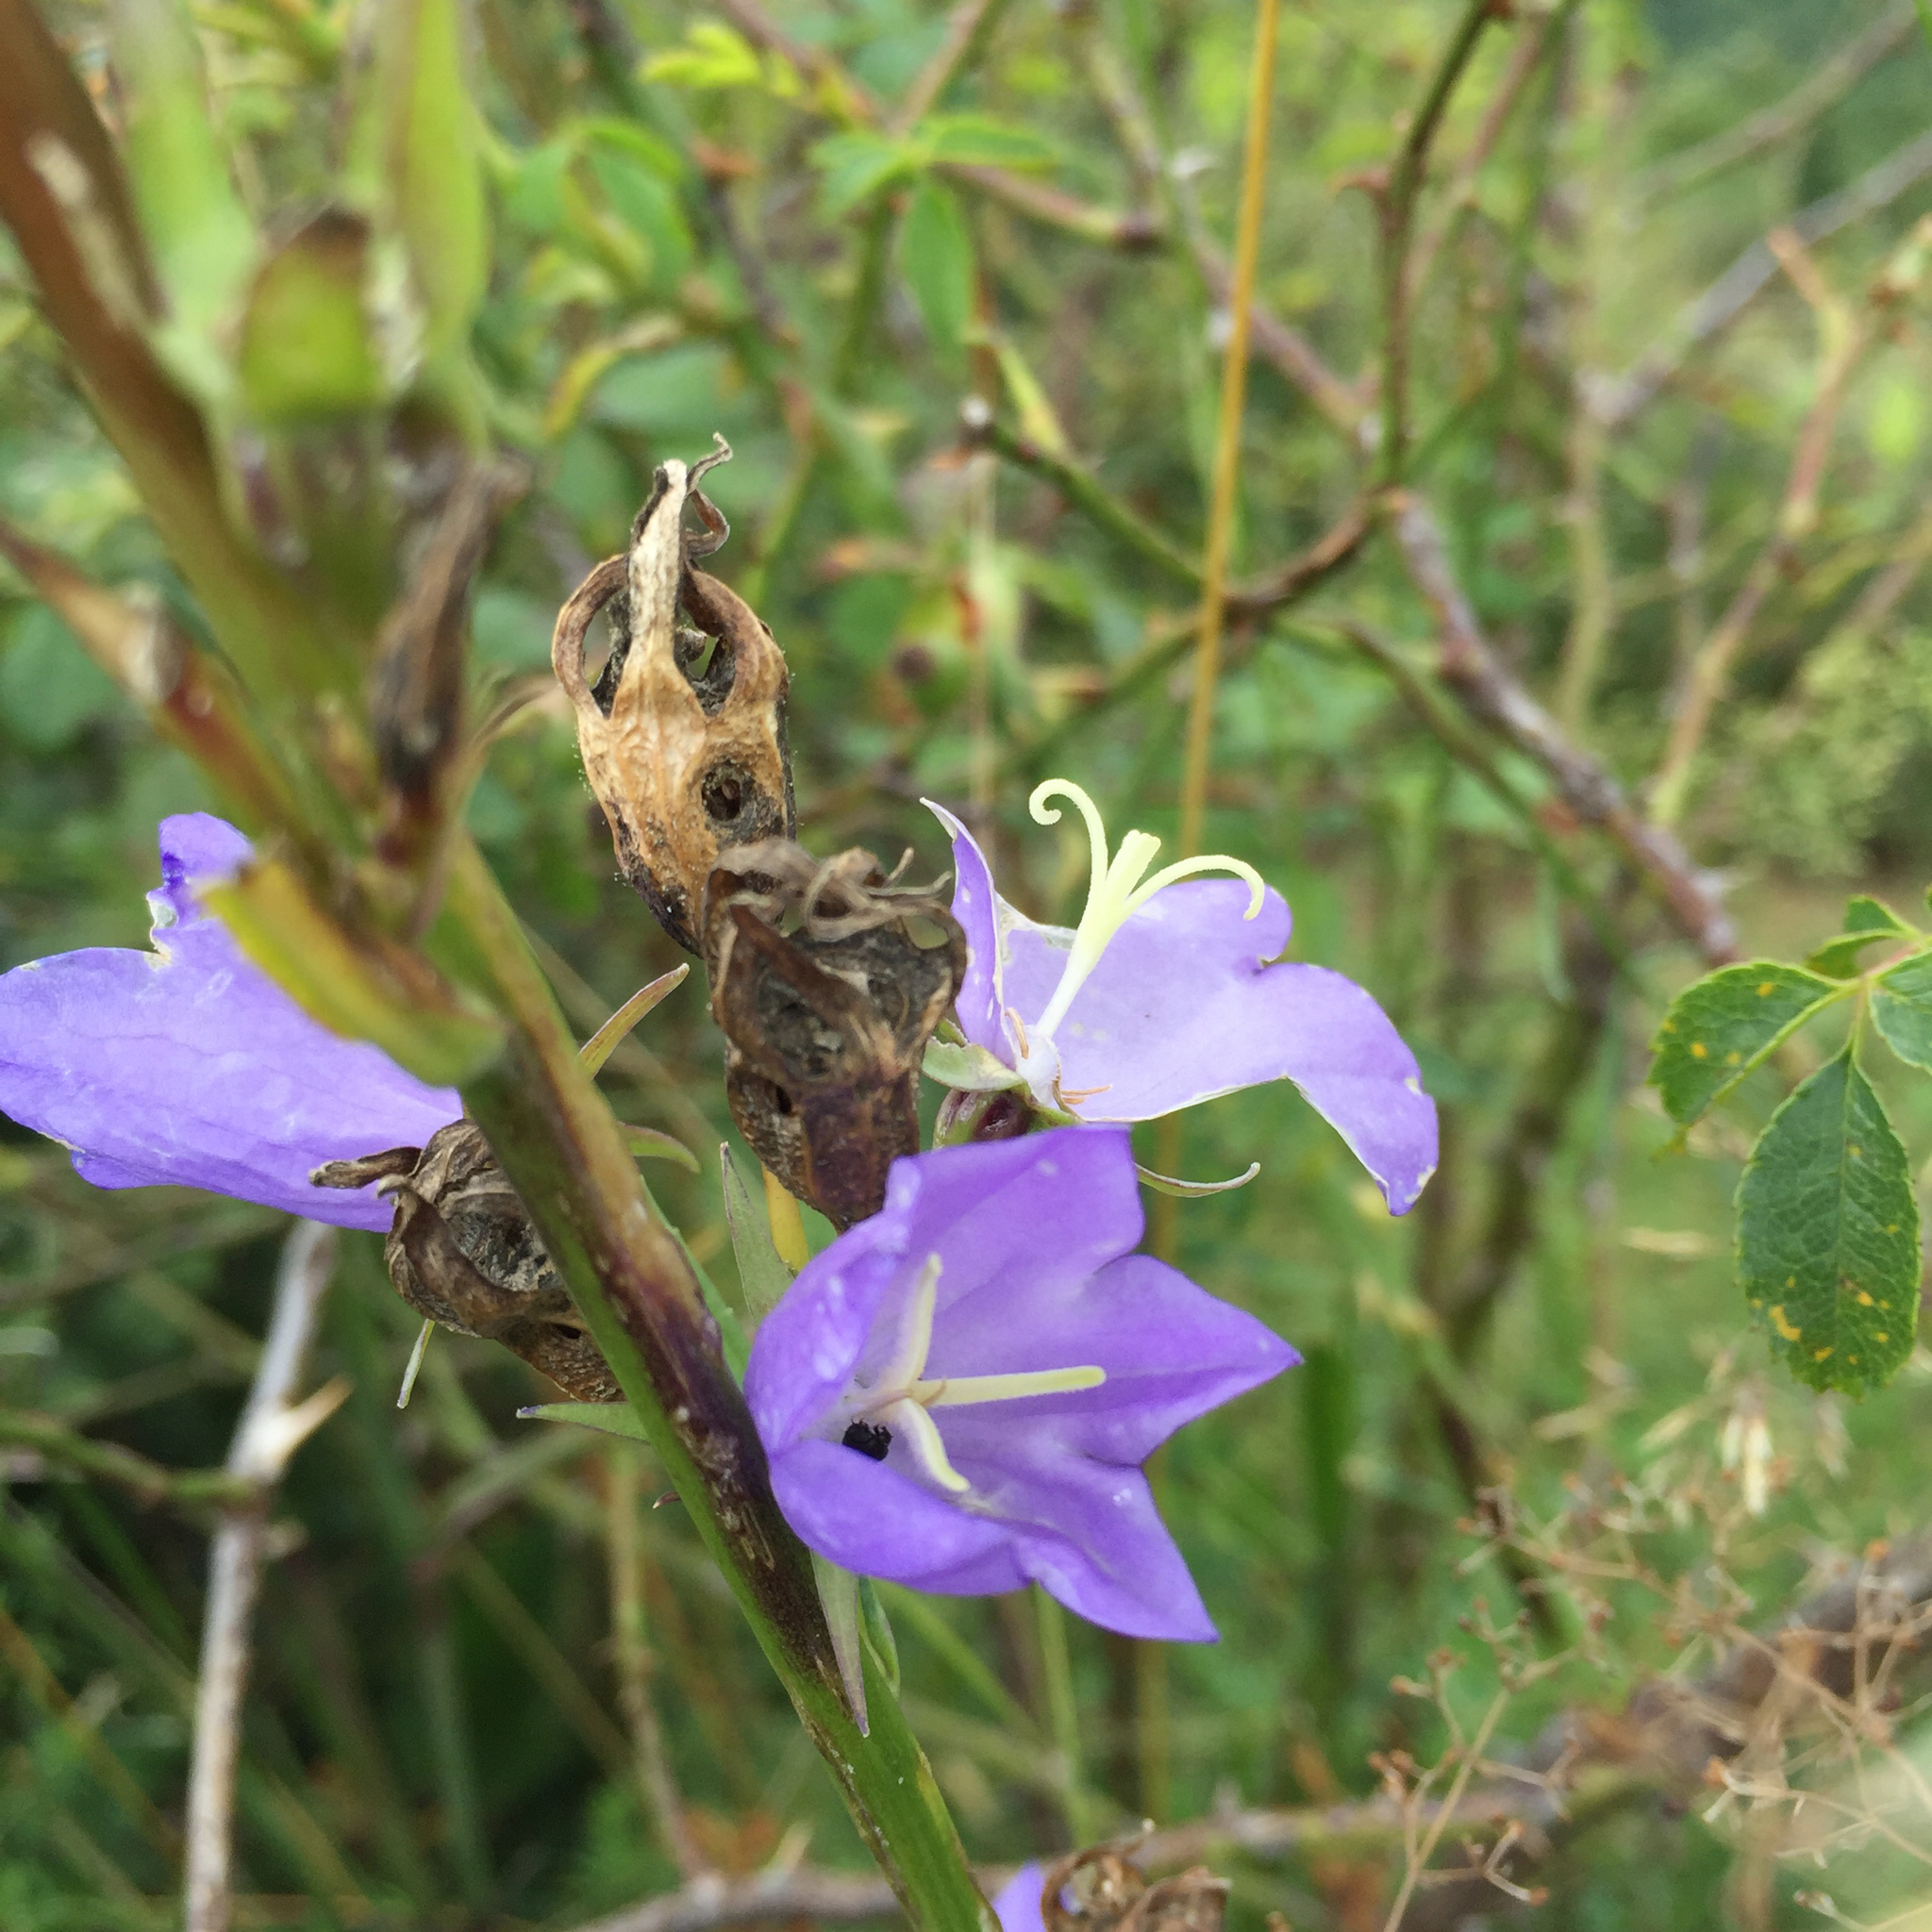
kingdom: Plantae
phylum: Tracheophyta
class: Magnoliopsida
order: Asterales
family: Campanulaceae
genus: Campanula
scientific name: Campanula persicifolia
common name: Peach-leaved bellflower
